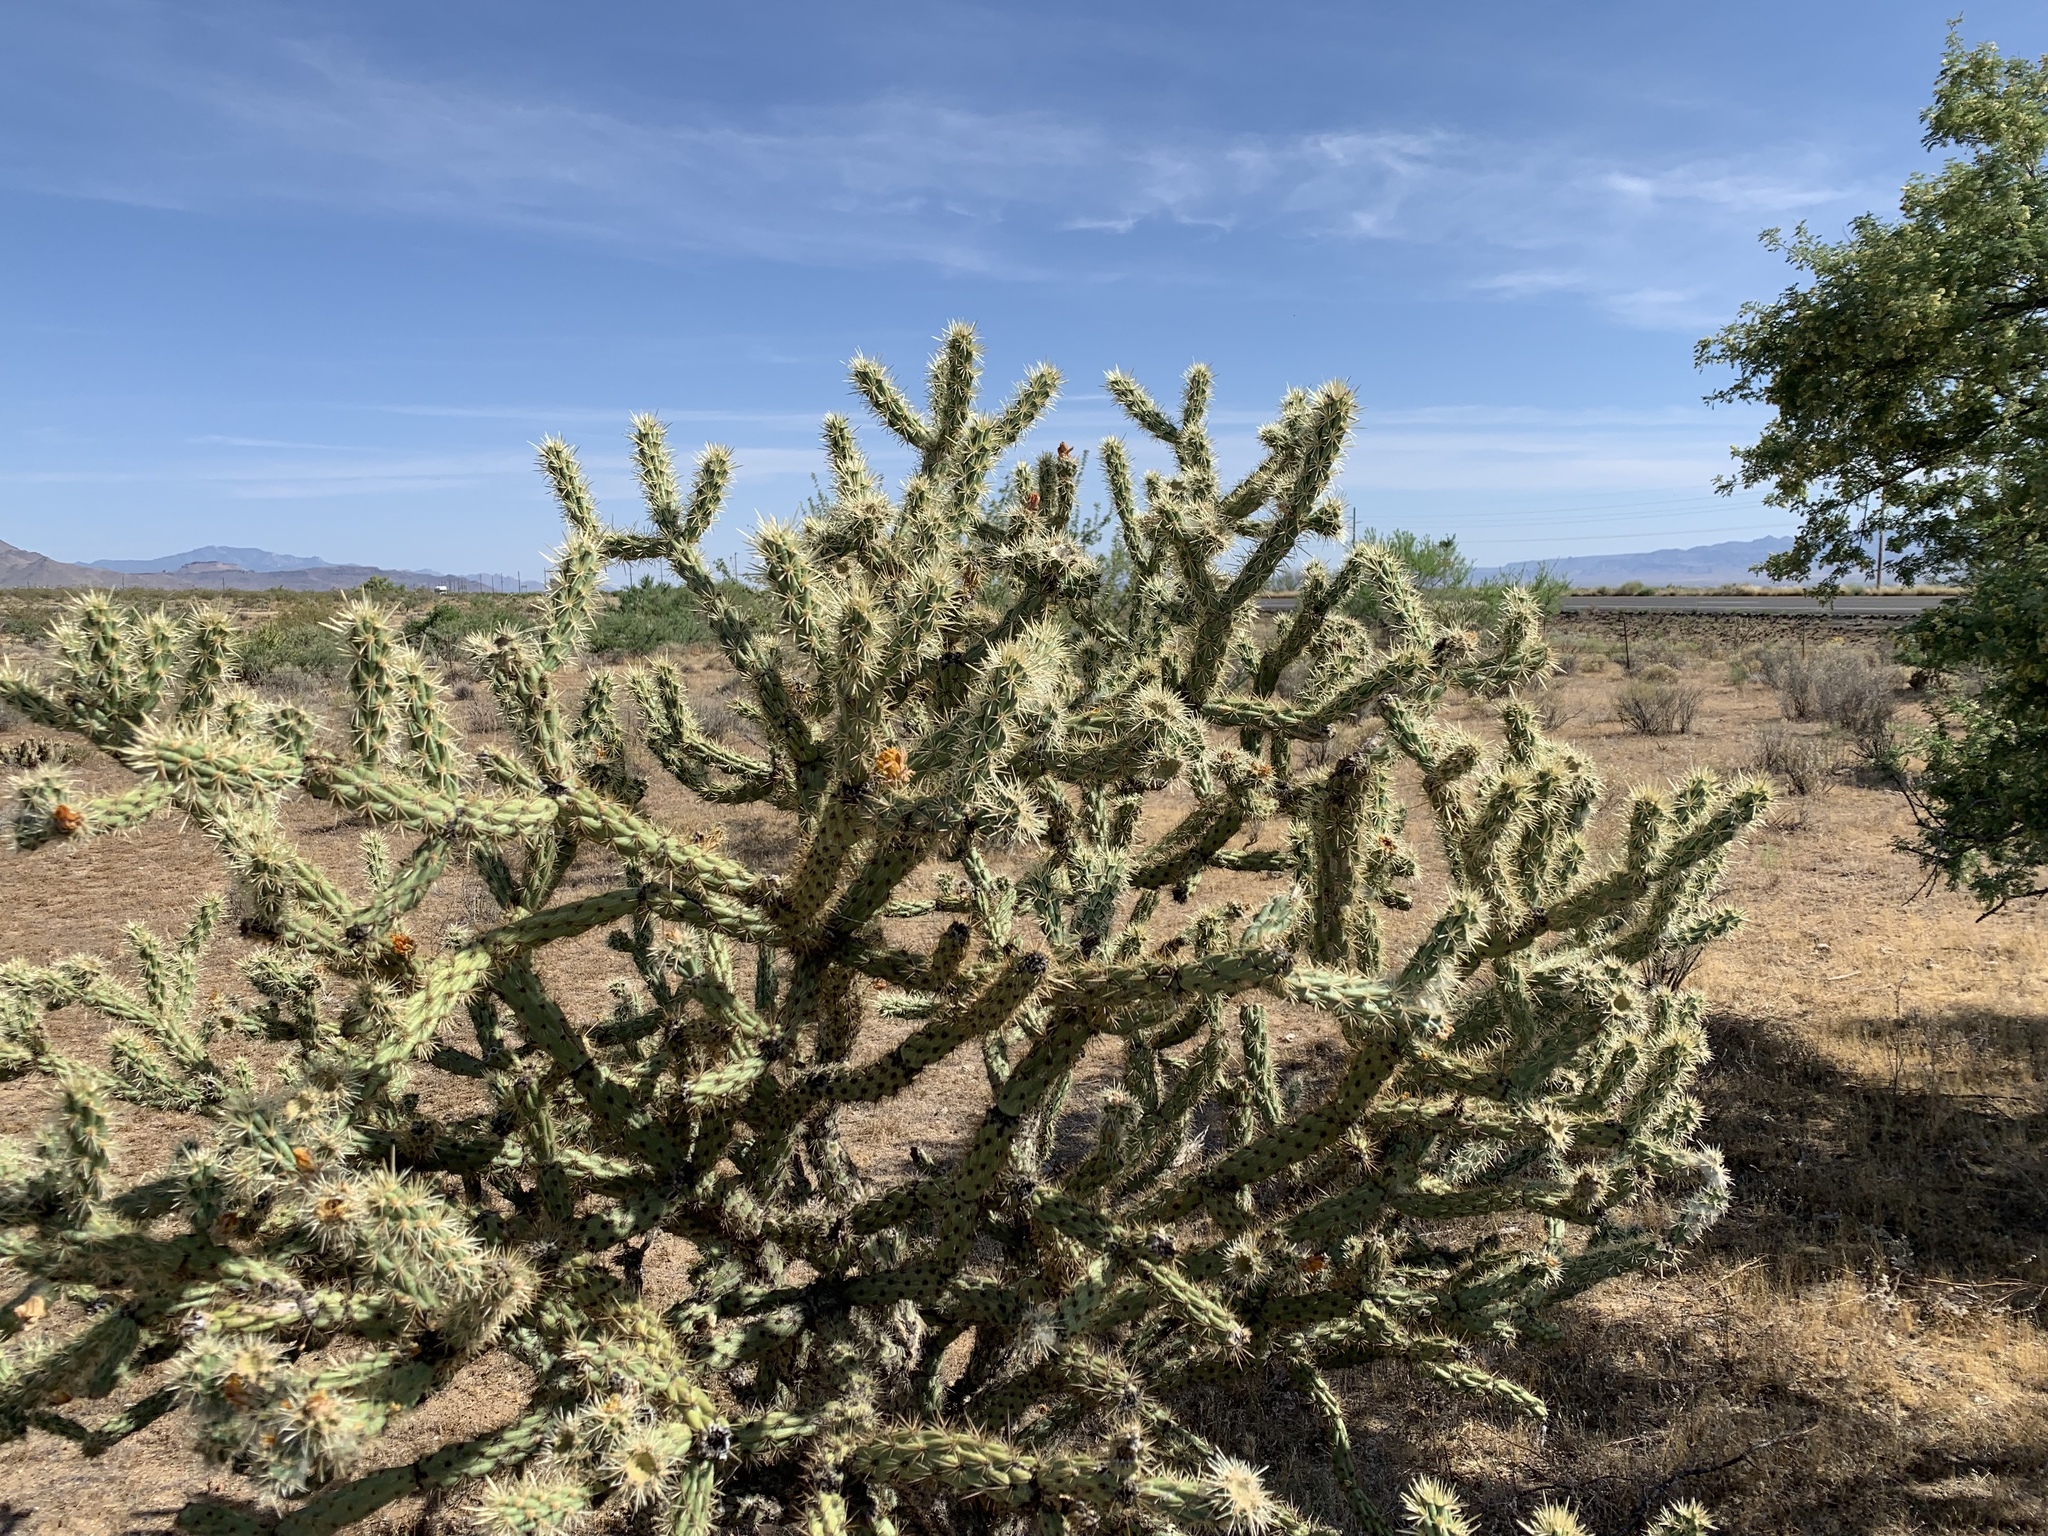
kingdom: Plantae
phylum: Tracheophyta
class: Magnoliopsida
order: Caryophyllales
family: Cactaceae
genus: Cylindropuntia
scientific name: Cylindropuntia acanthocarpa
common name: Buckhorn cholla
